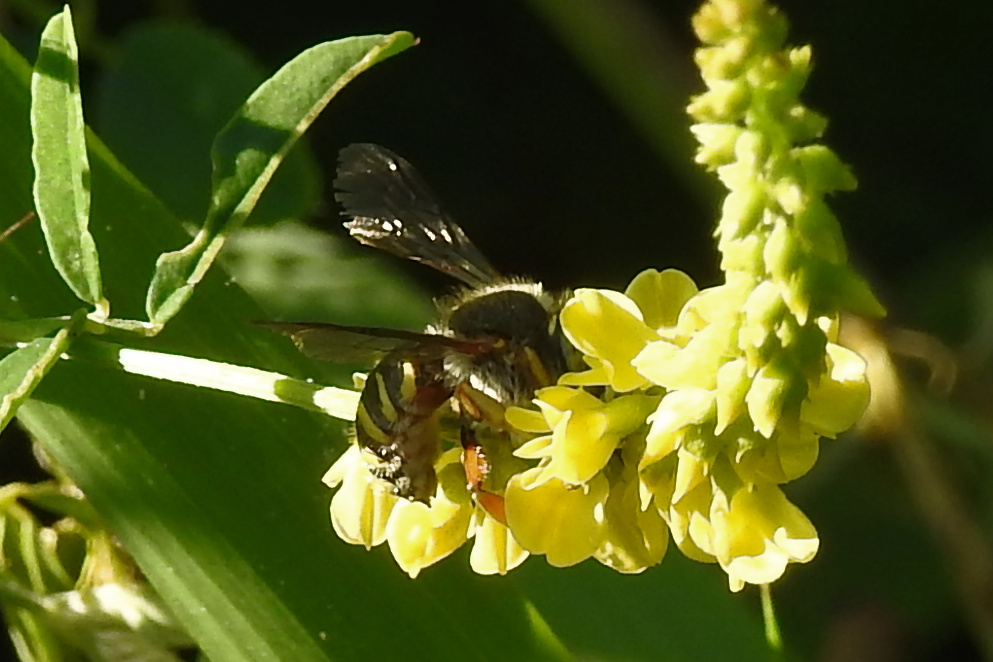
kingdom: Animalia
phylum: Arthropoda
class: Insecta
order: Hymenoptera
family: Megachilidae
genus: Anthidium
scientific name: Anthidium oblongatum
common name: Oblong wool carder bee
